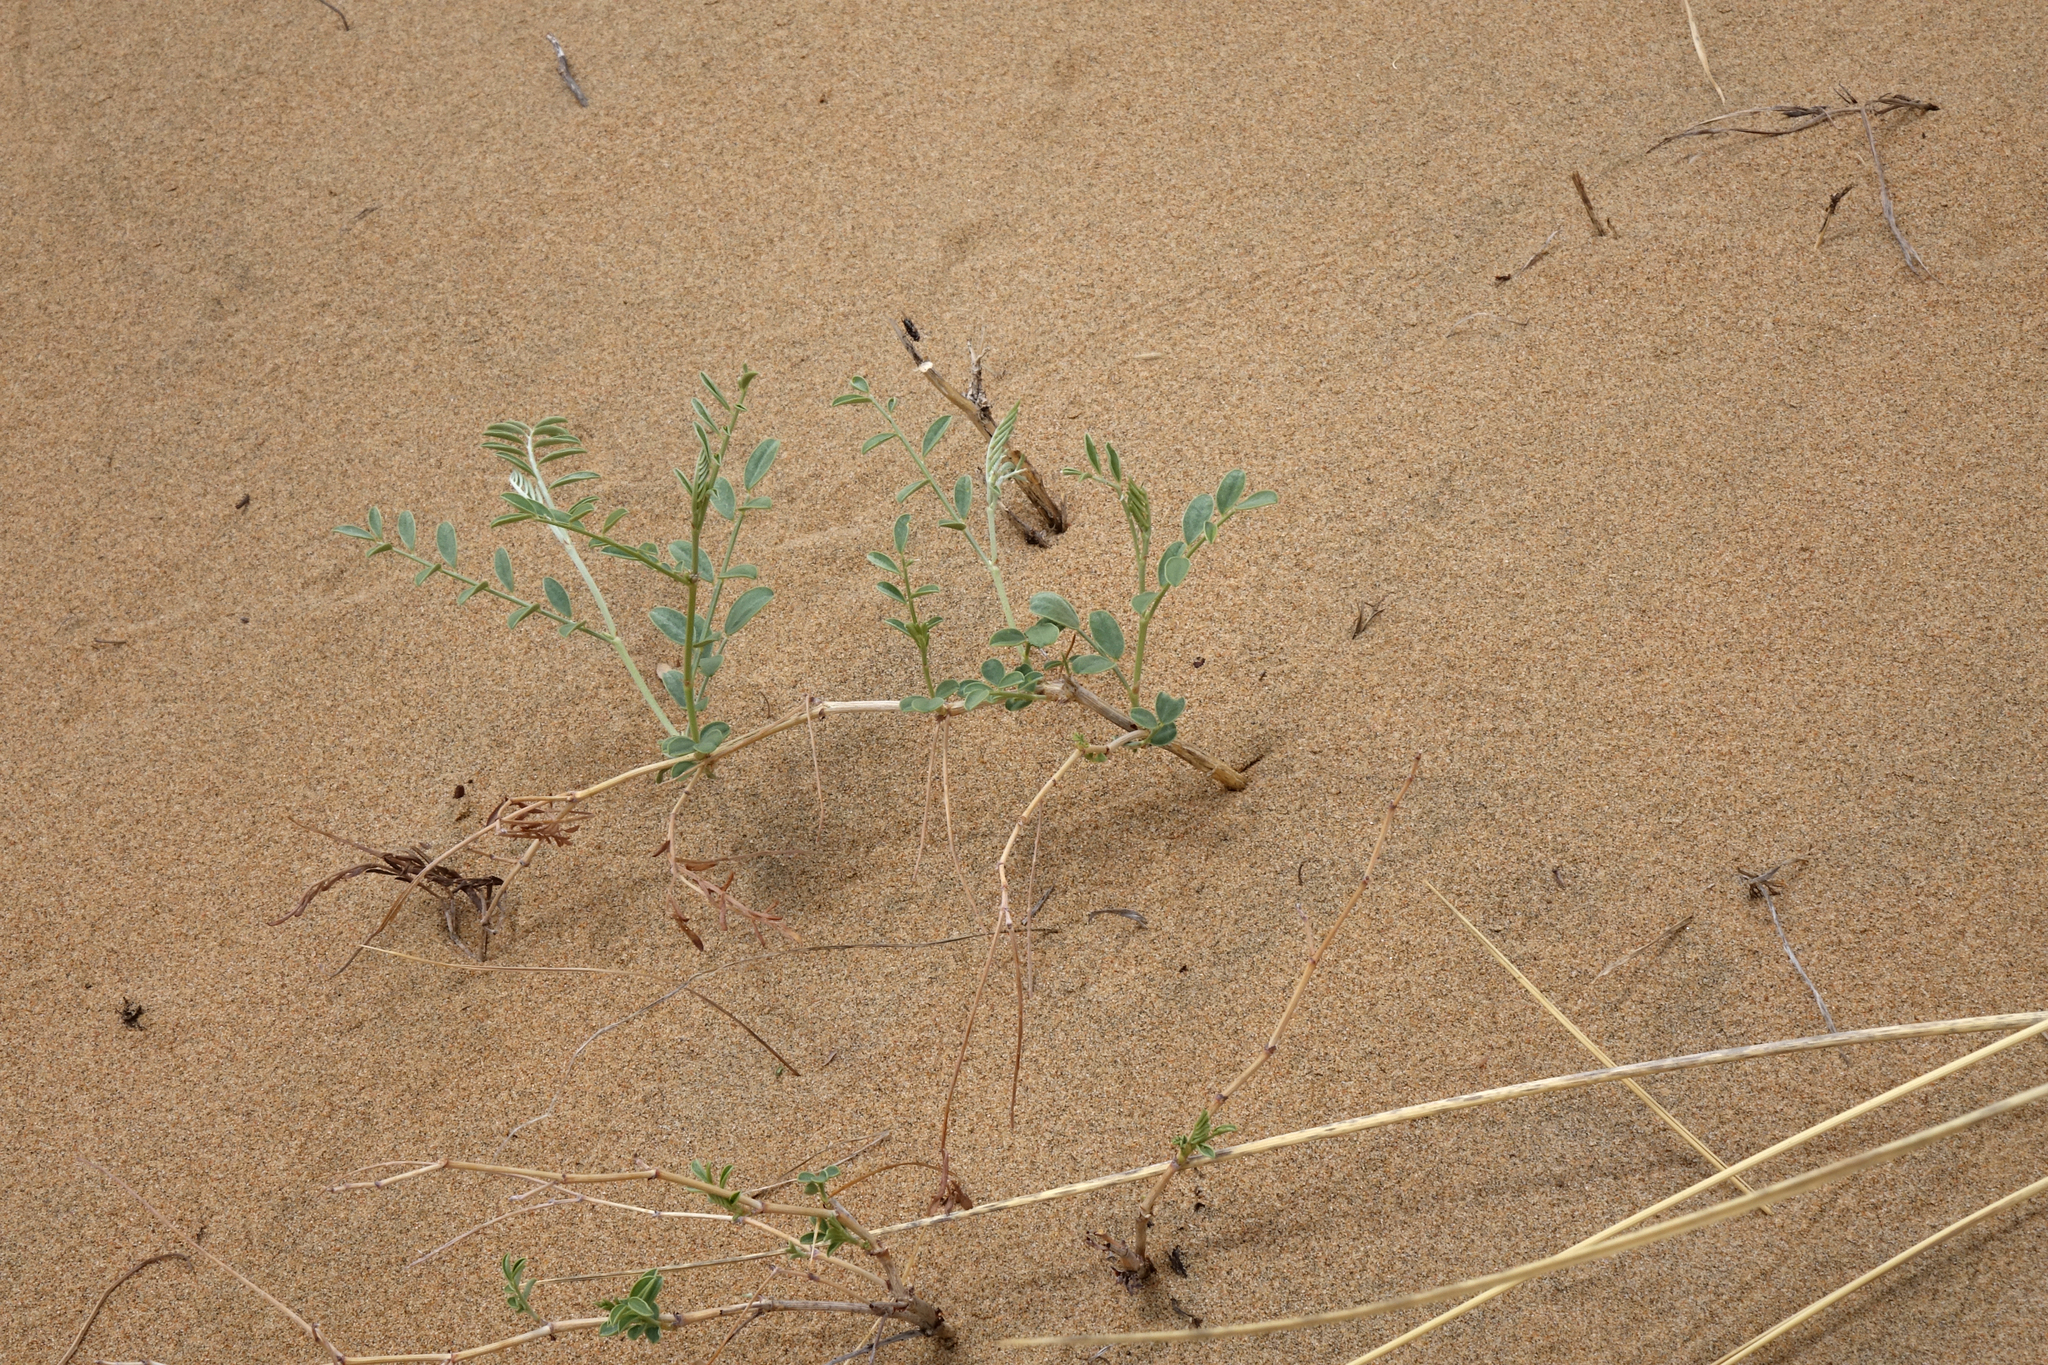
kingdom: Plantae
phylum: Tracheophyta
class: Magnoliopsida
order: Fabales
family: Fabaceae
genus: Corethrodendron
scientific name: Corethrodendron fruticosum
